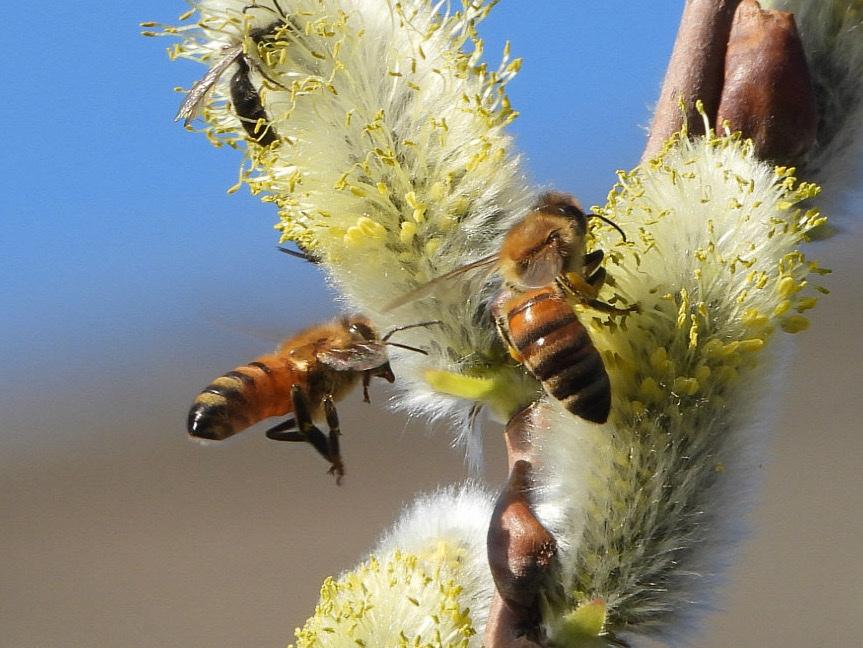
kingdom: Animalia
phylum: Arthropoda
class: Insecta
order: Hymenoptera
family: Apidae
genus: Apis
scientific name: Apis mellifera
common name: Honey bee
